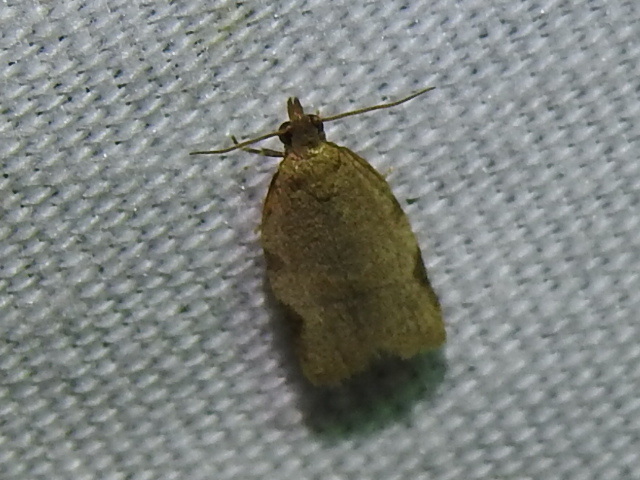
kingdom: Animalia
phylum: Arthropoda
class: Insecta
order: Lepidoptera
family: Tortricidae
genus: Clepsis
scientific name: Clepsis virescana
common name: Greenish apple moth
